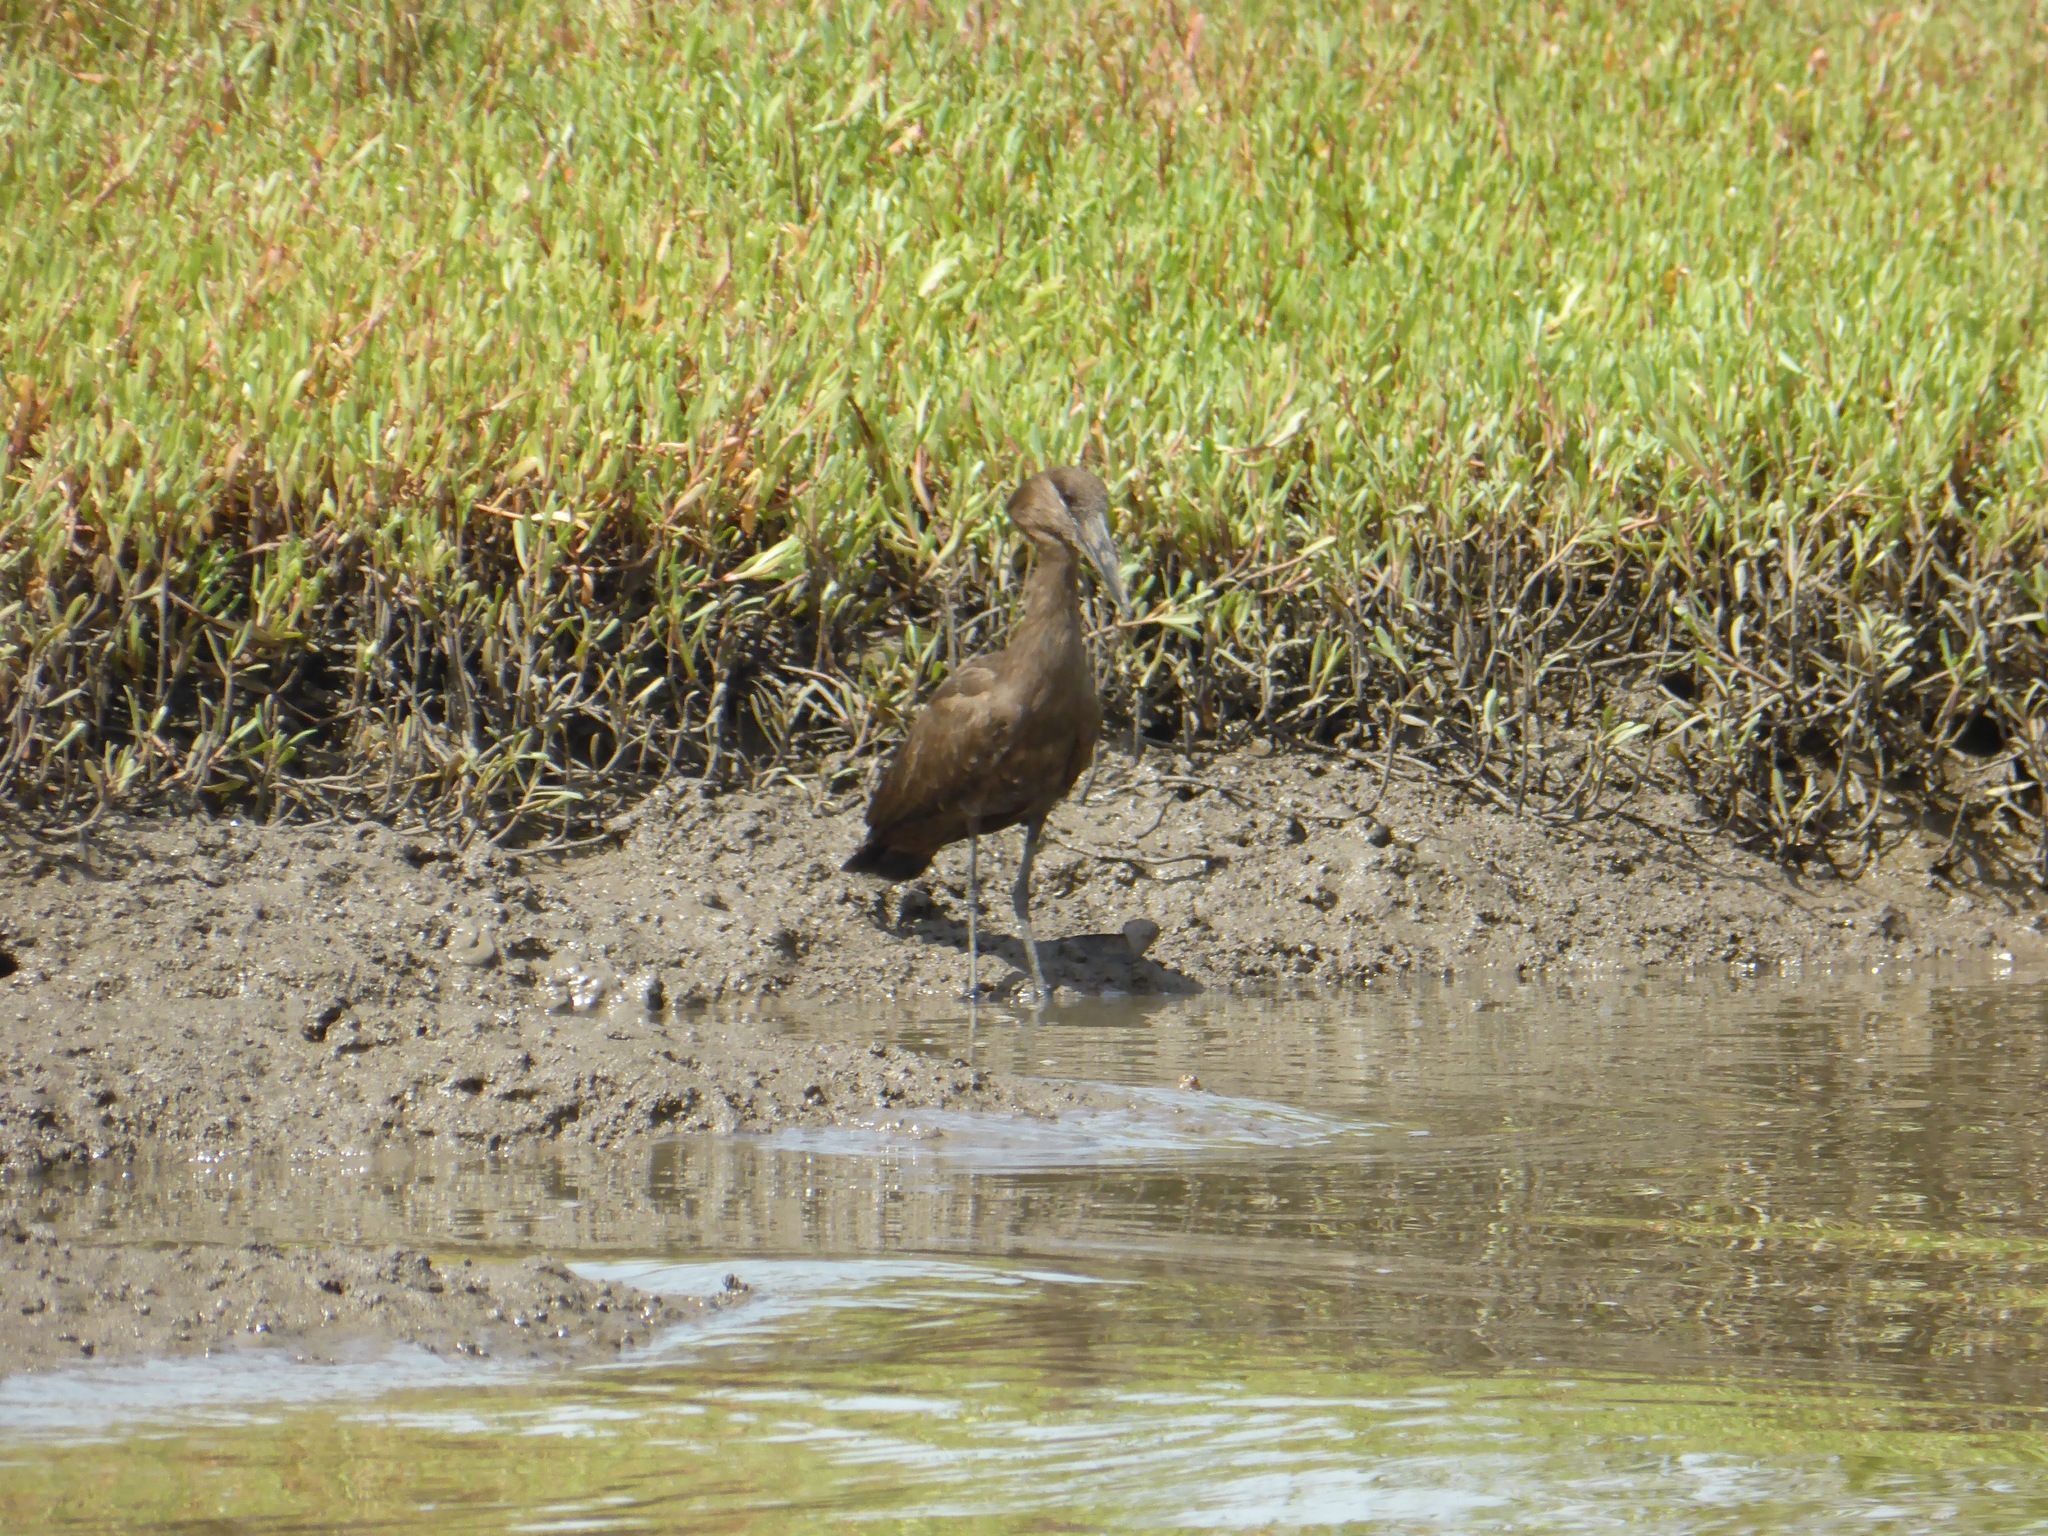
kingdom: Animalia
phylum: Chordata
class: Aves
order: Pelecaniformes
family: Scopidae
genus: Scopus
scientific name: Scopus umbretta
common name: Hamerkop
